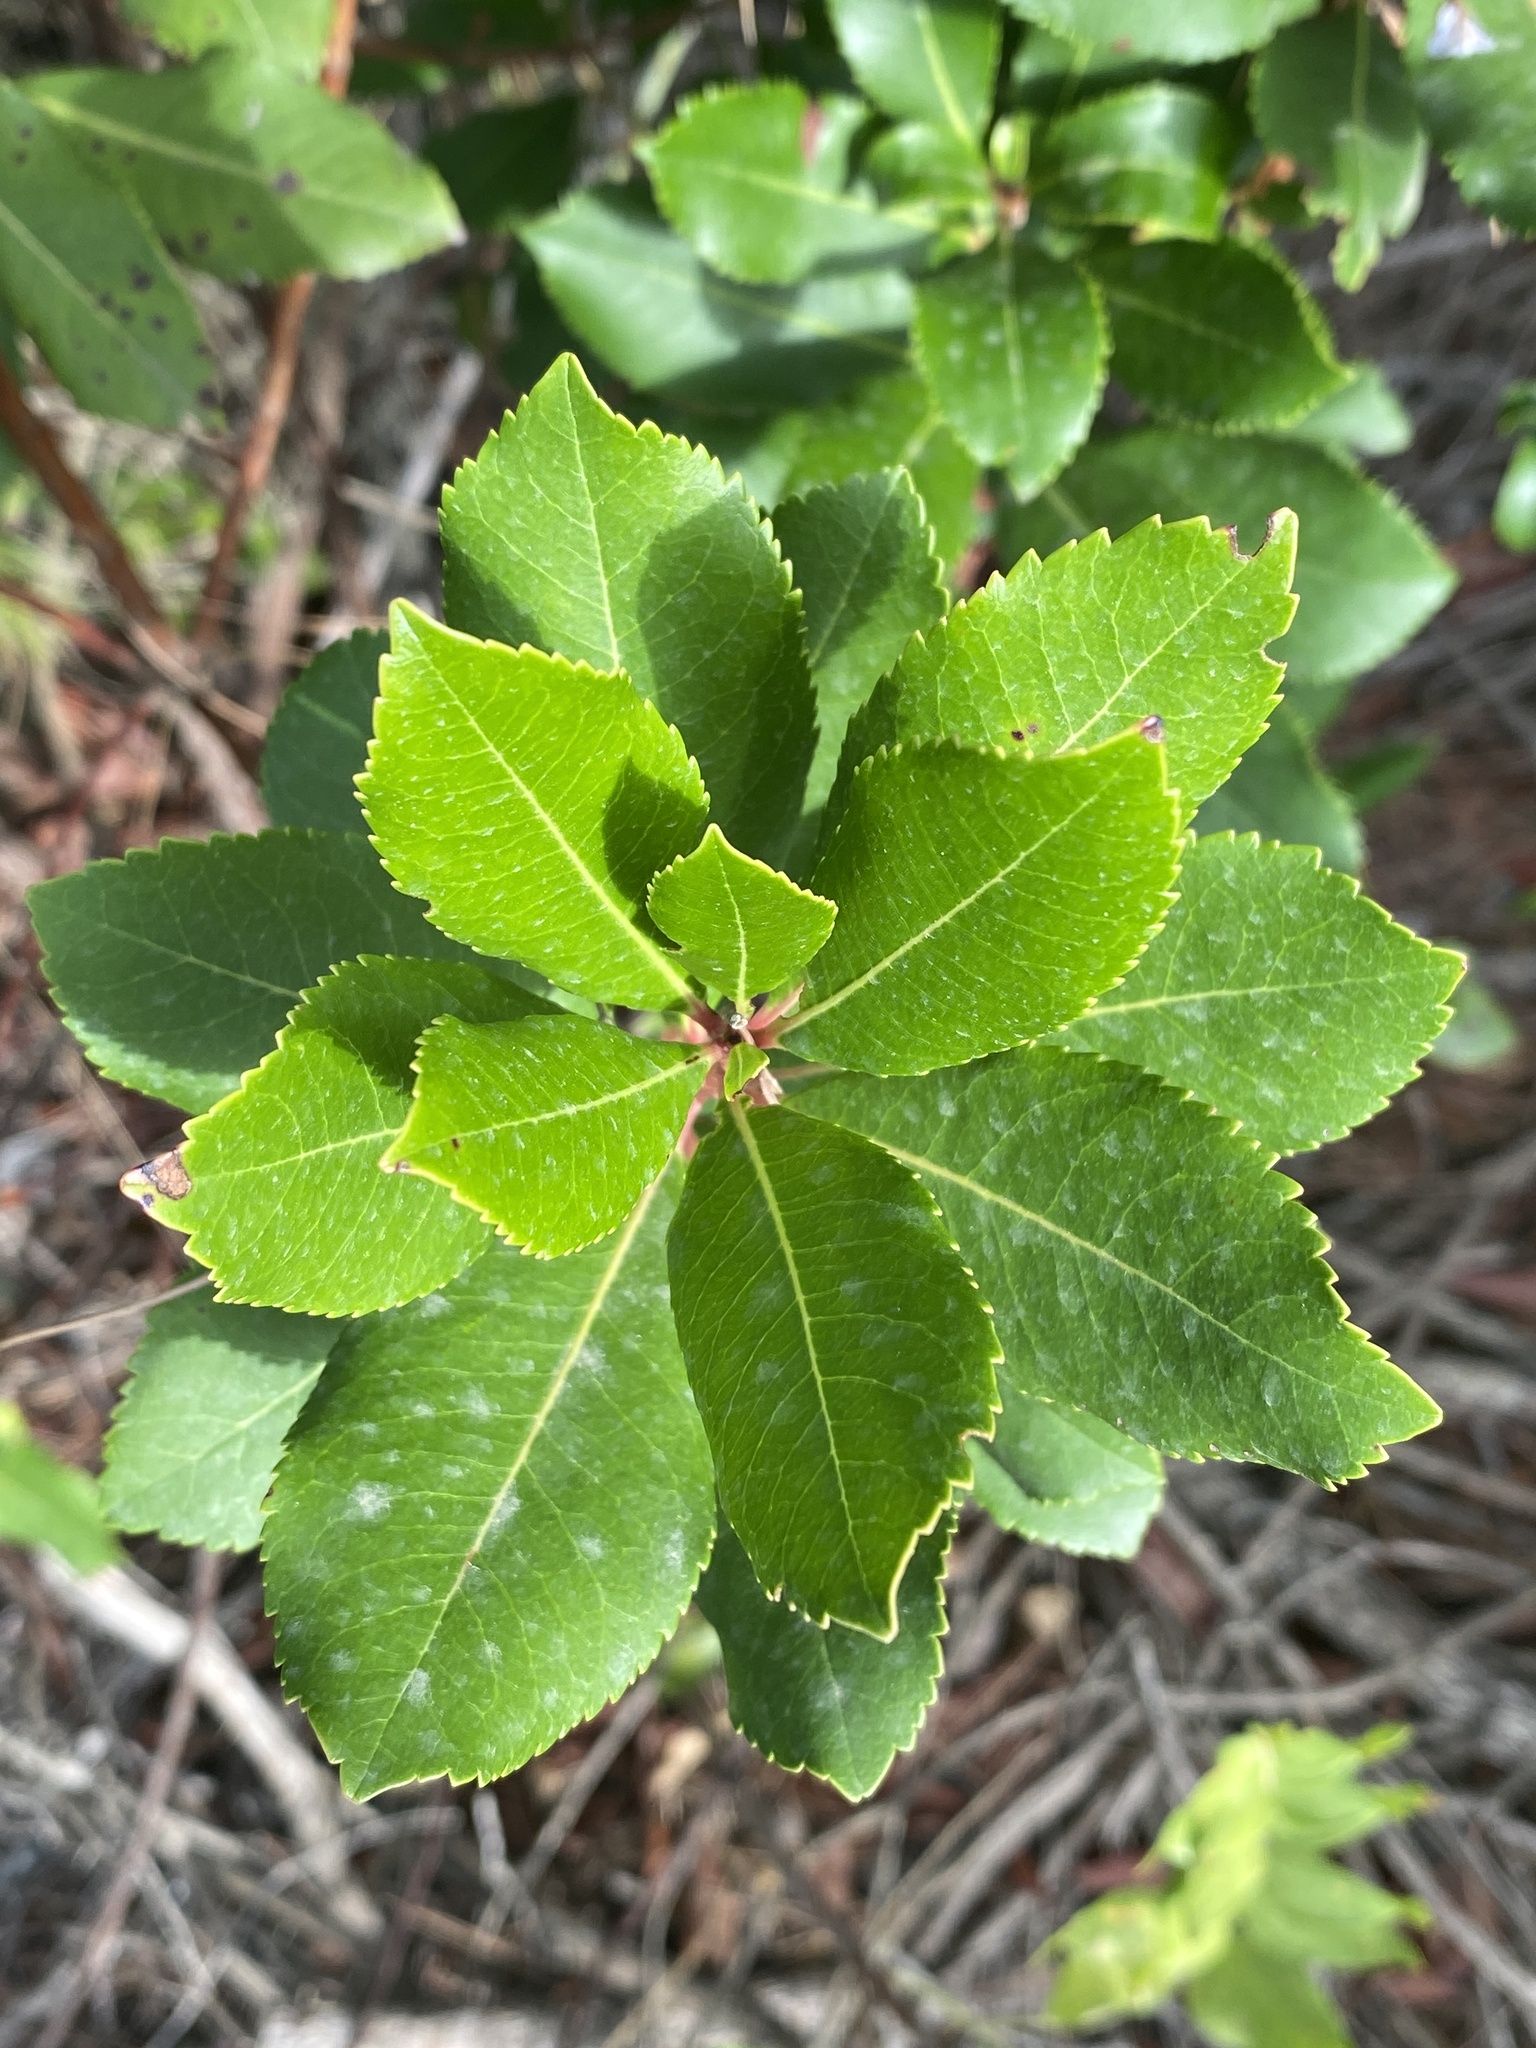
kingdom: Plantae
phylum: Tracheophyta
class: Magnoliopsida
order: Ericales
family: Ericaceae
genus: Arbutus
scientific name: Arbutus unedo
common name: Strawberry-tree
